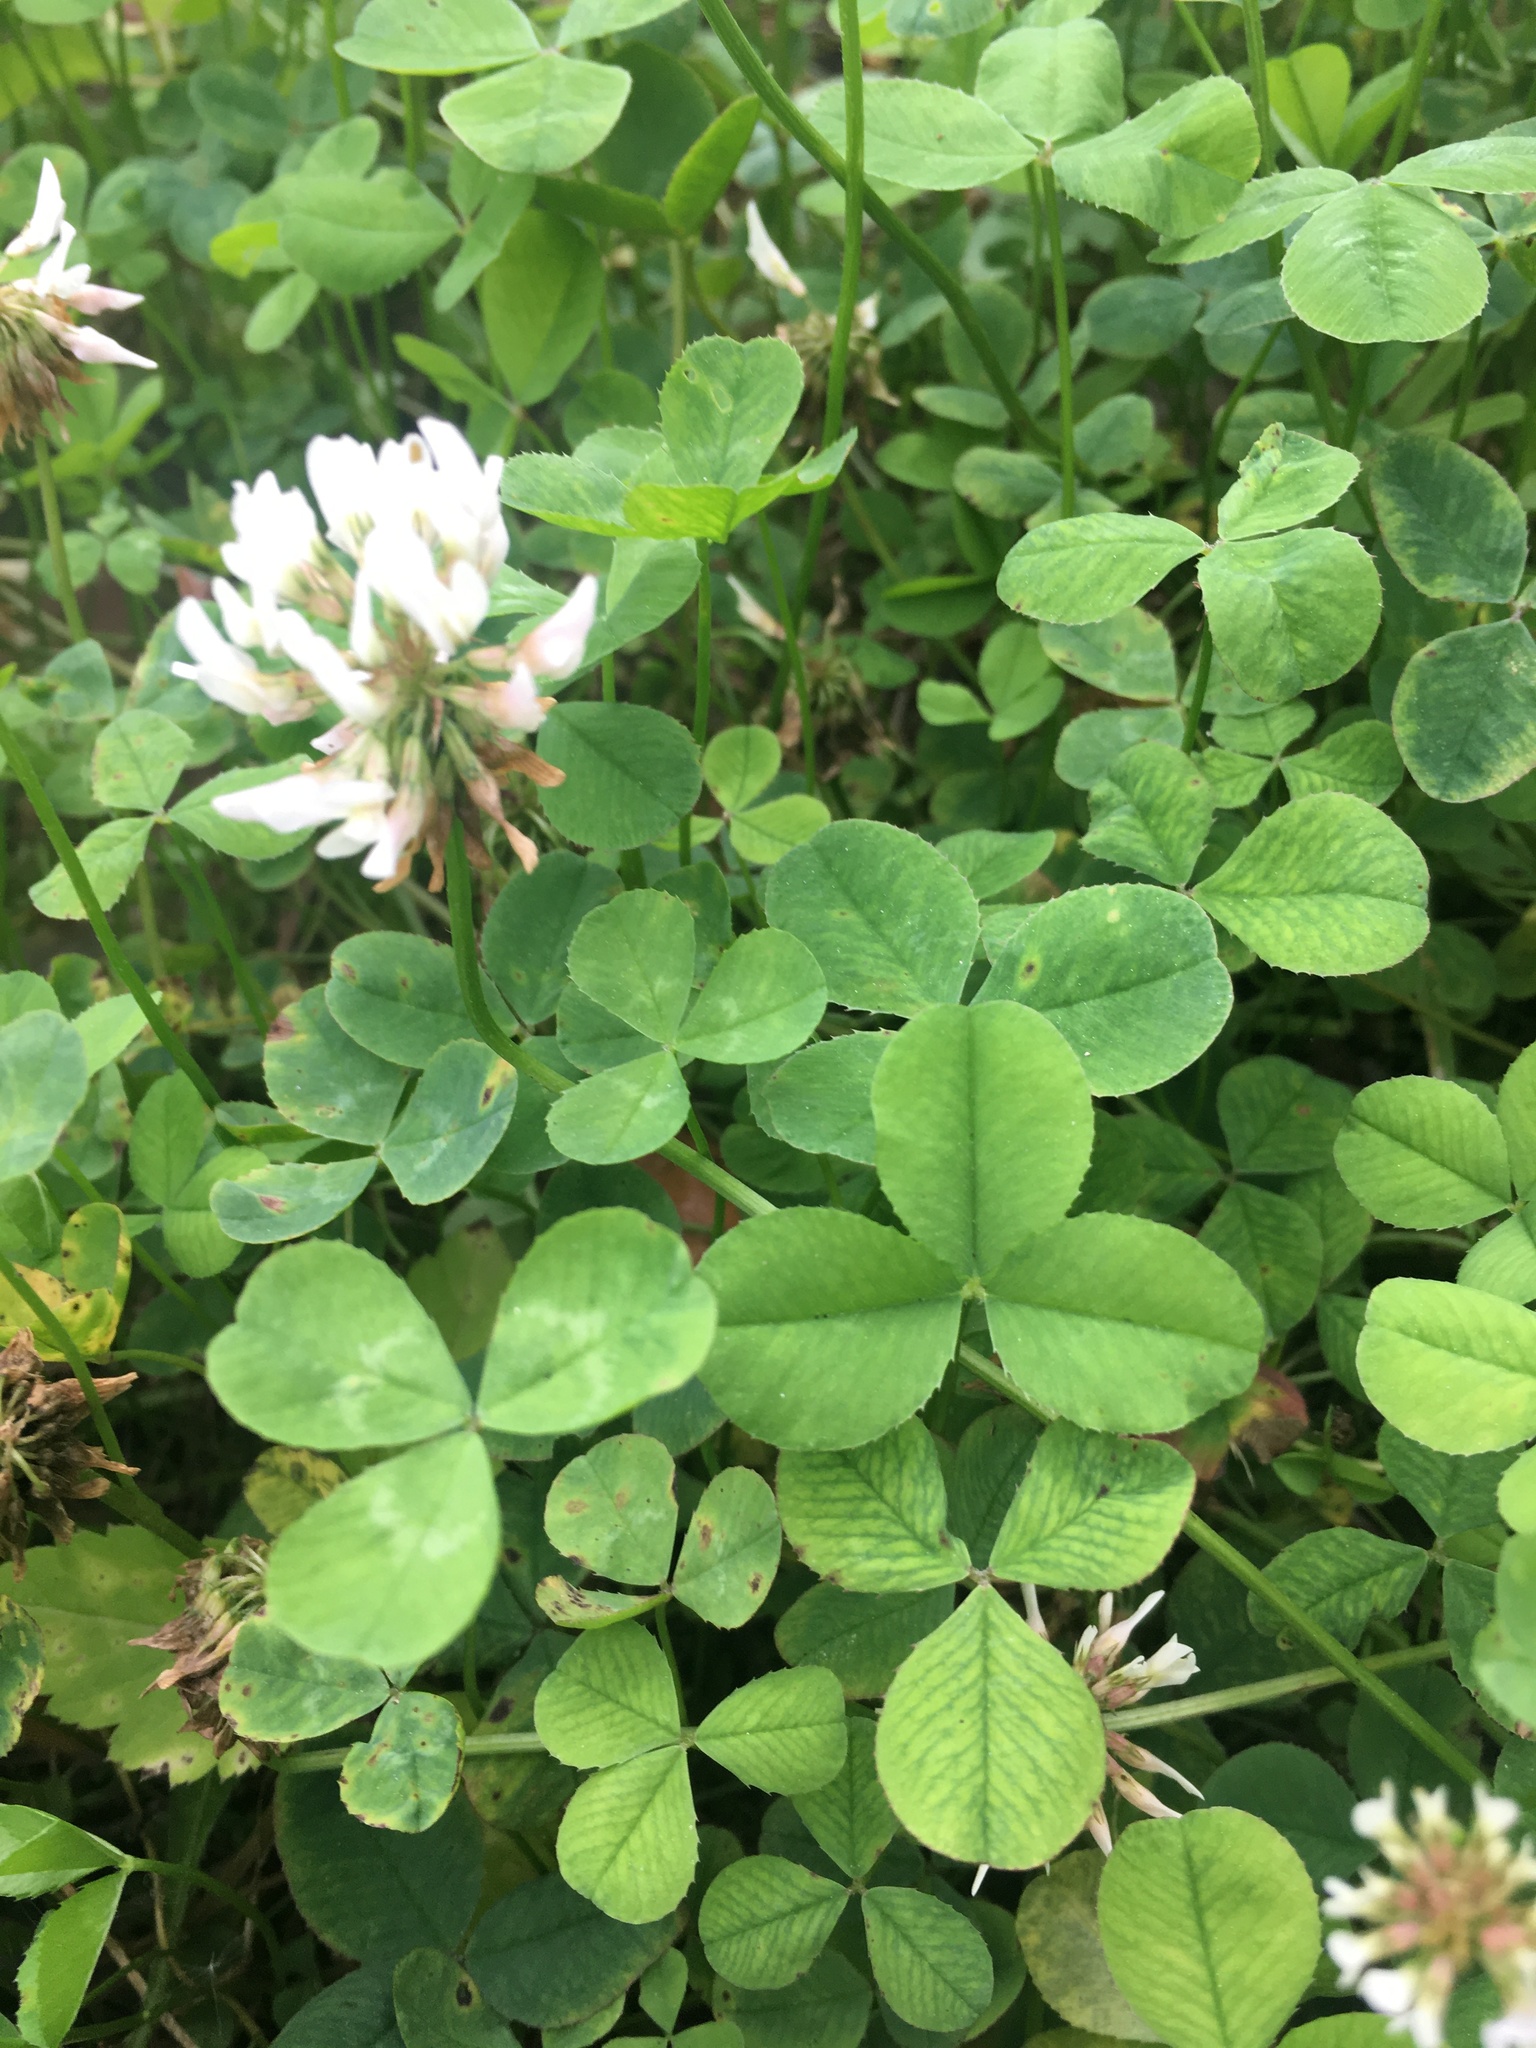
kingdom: Plantae
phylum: Tracheophyta
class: Magnoliopsida
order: Fabales
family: Fabaceae
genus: Trifolium
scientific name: Trifolium repens
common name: White clover
